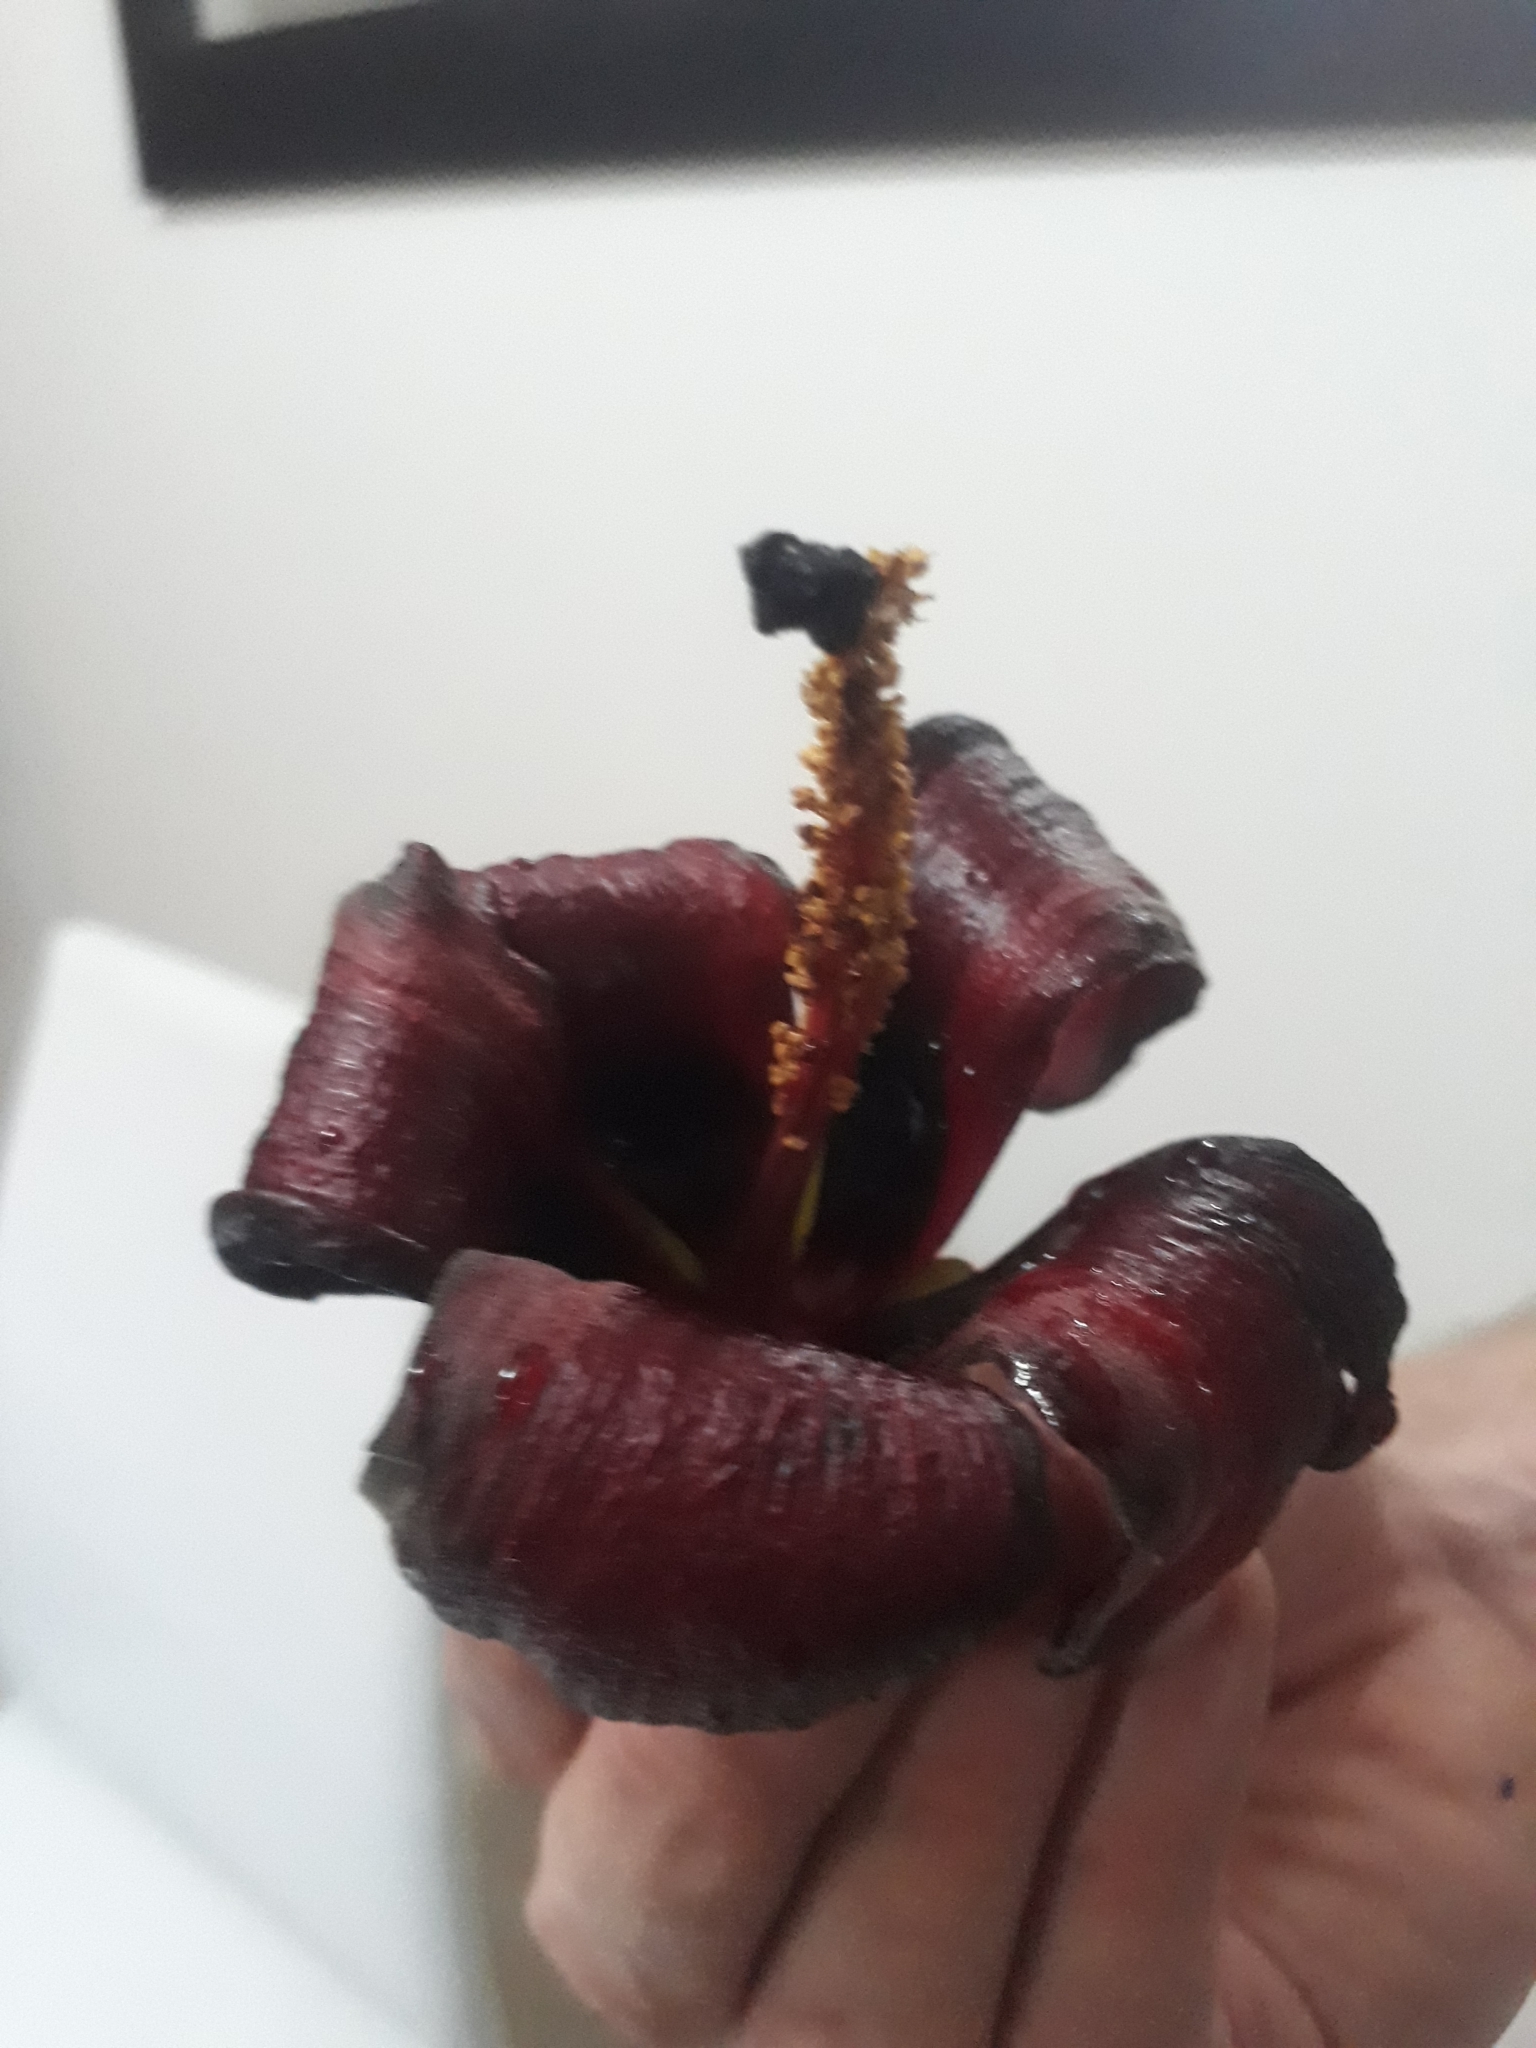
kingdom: Plantae
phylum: Tracheophyta
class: Magnoliopsida
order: Malvales
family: Malvaceae
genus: Talipariti
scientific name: Talipariti
